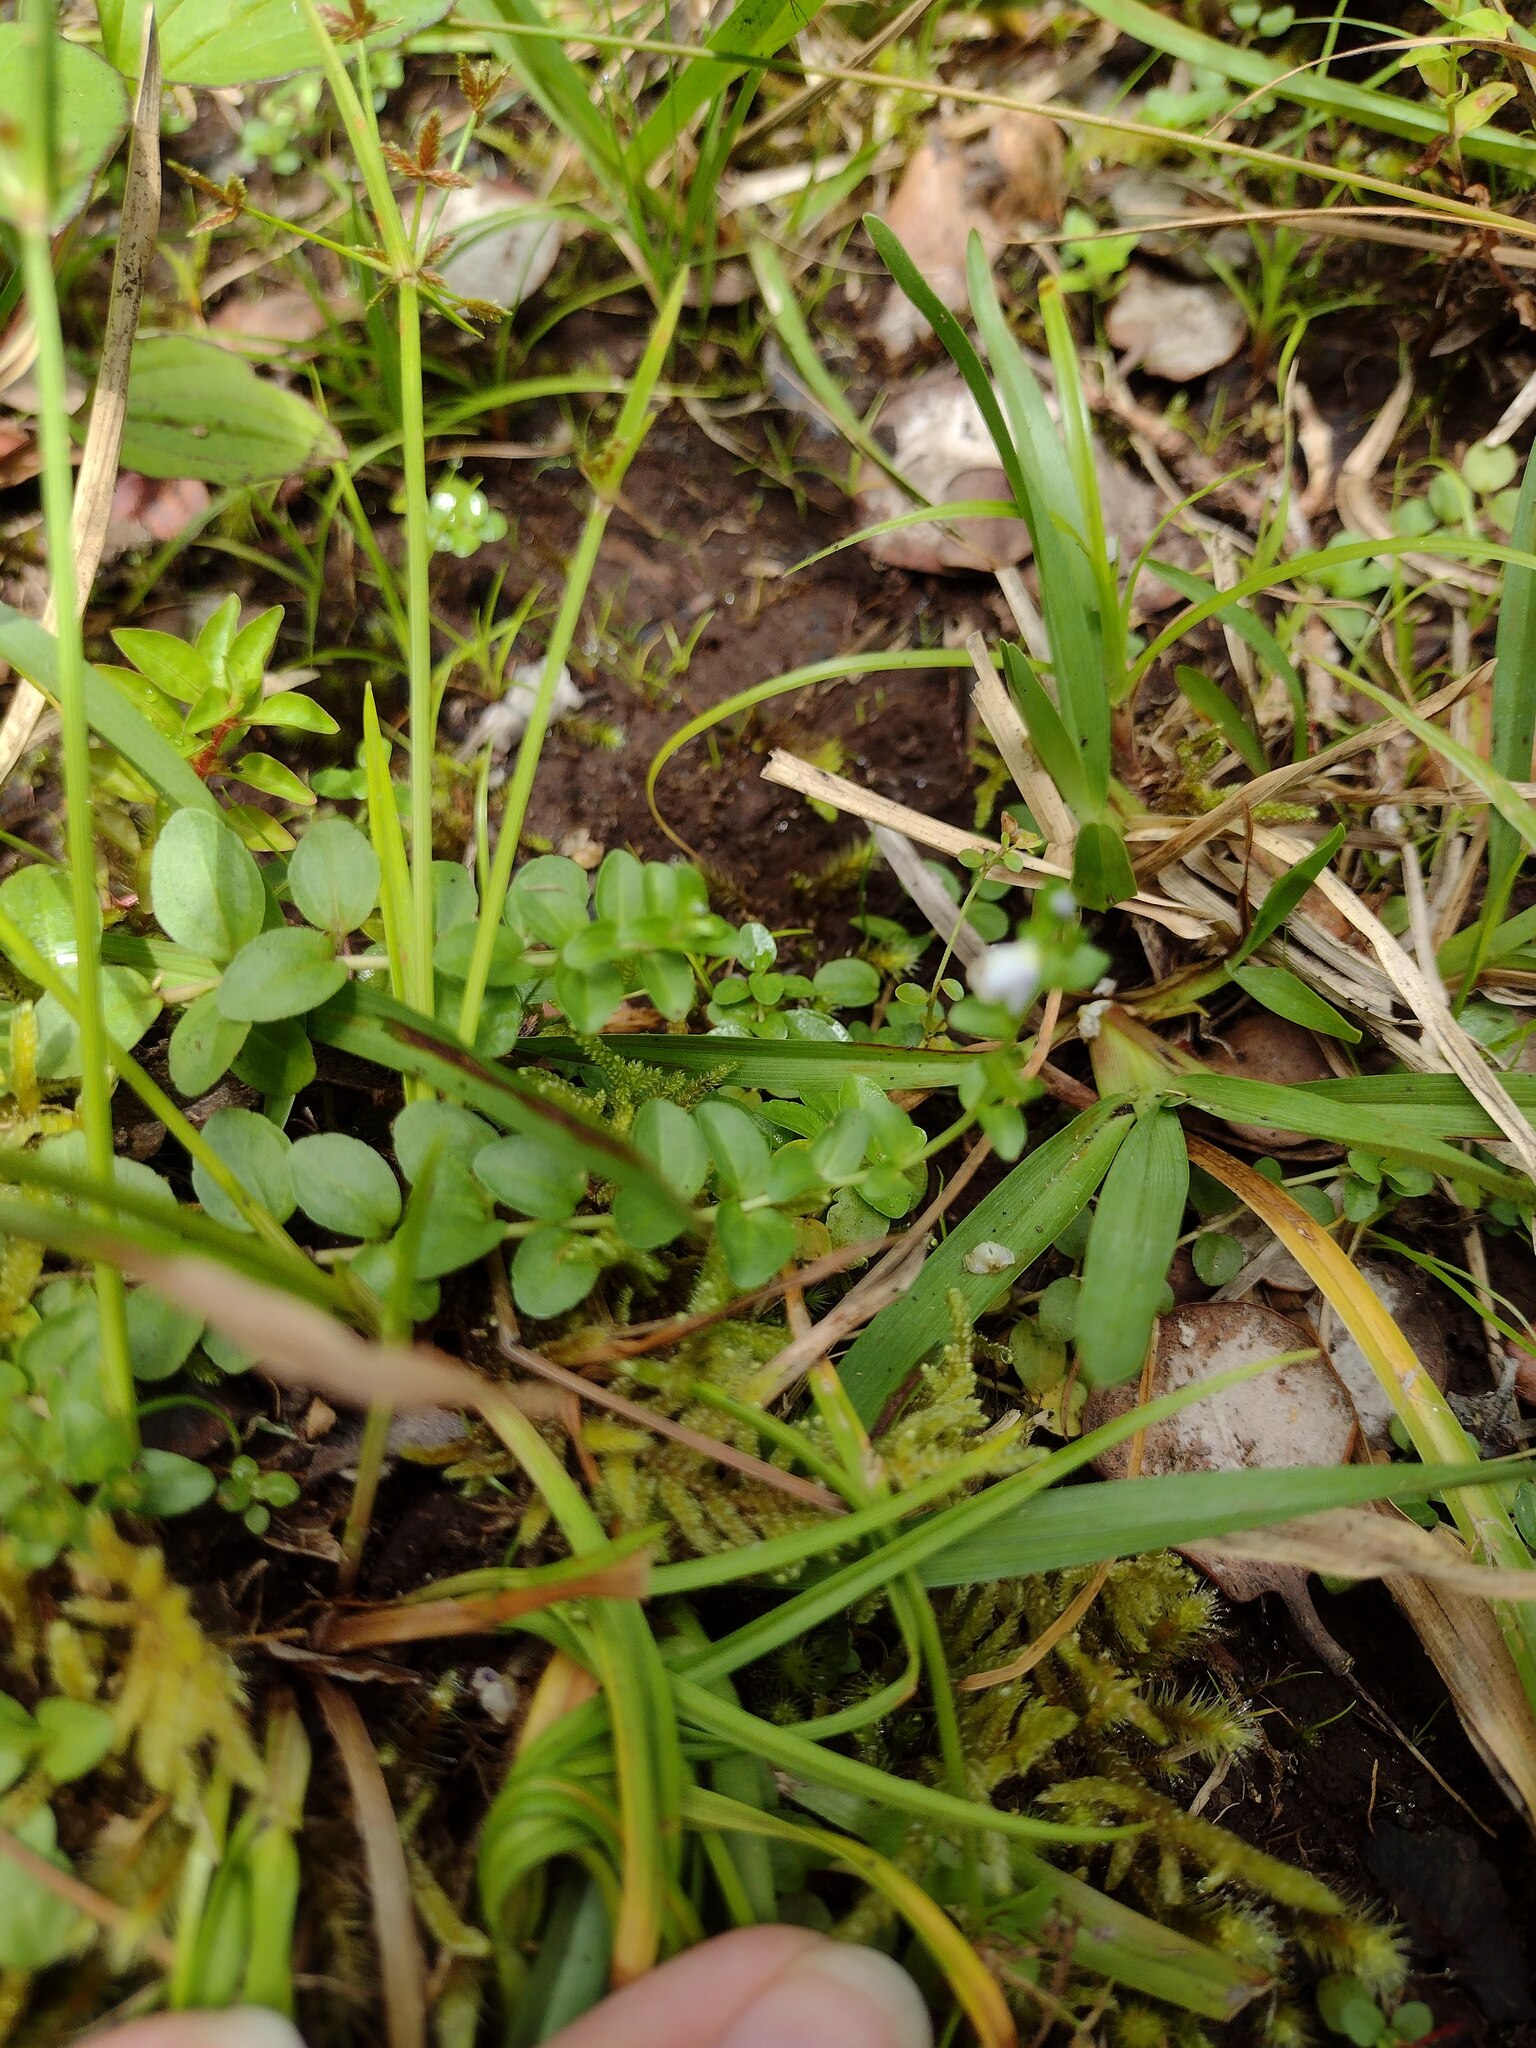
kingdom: Plantae
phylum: Tracheophyta
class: Magnoliopsida
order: Lamiales
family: Plantaginaceae
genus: Veronica
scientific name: Veronica serpyllifolia
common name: Thyme-leaved speedwell
